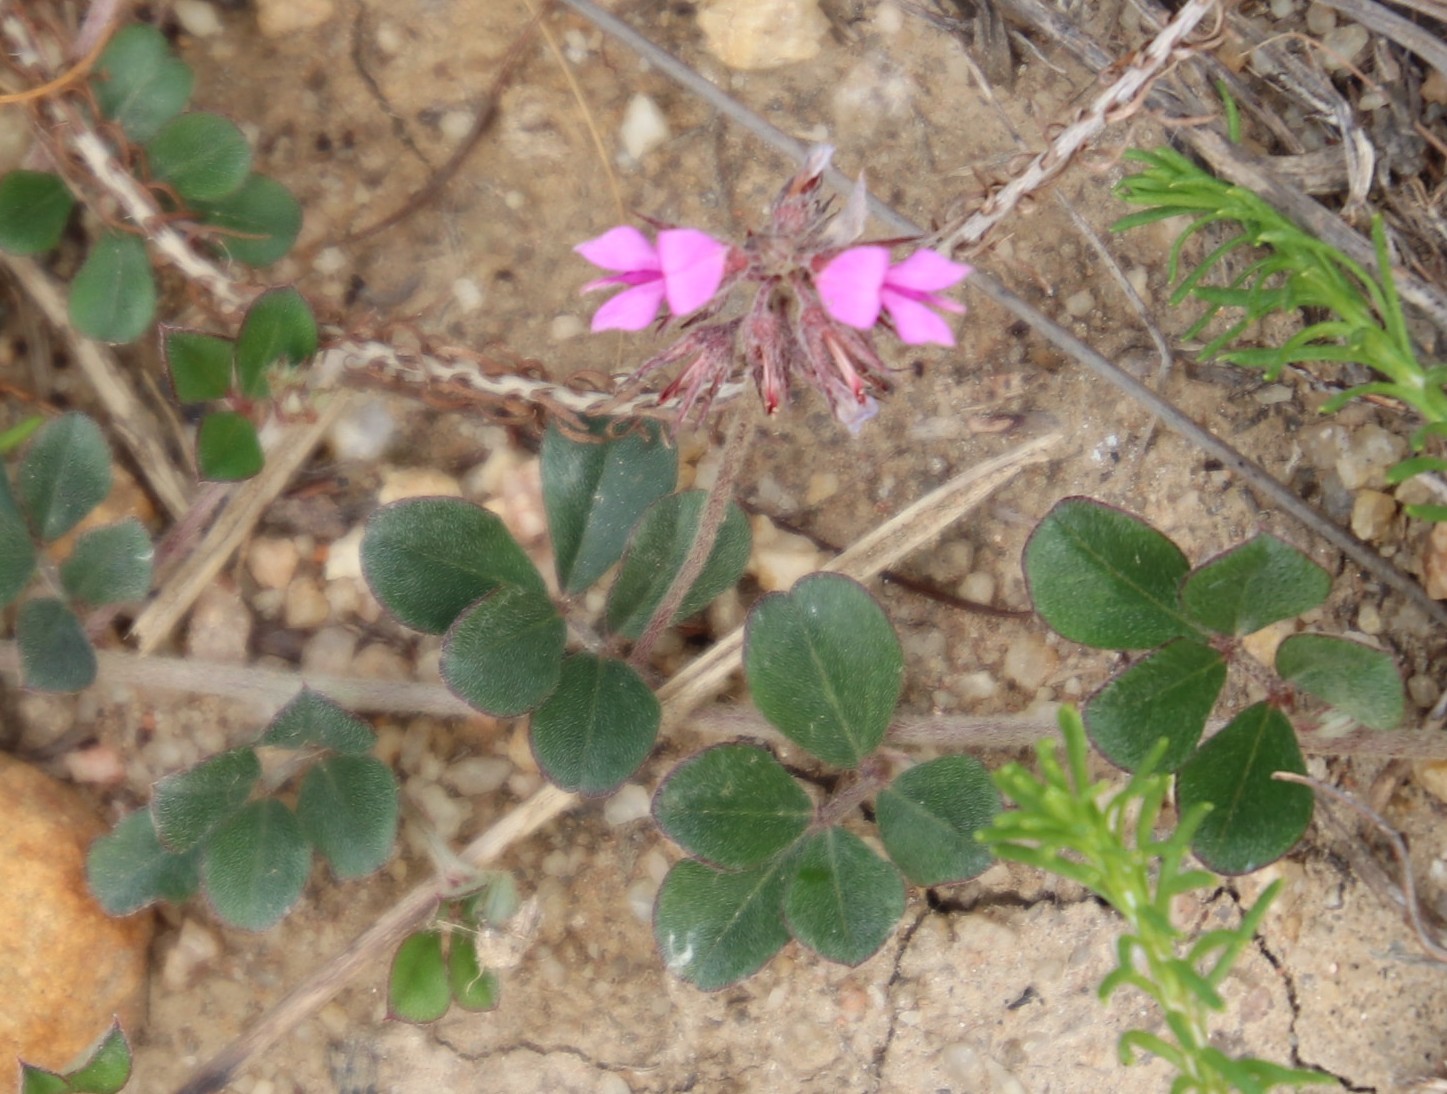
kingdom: Plantae
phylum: Tracheophyta
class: Magnoliopsida
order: Fabales
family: Fabaceae
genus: Indigofera
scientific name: Indigofera mauritanica
